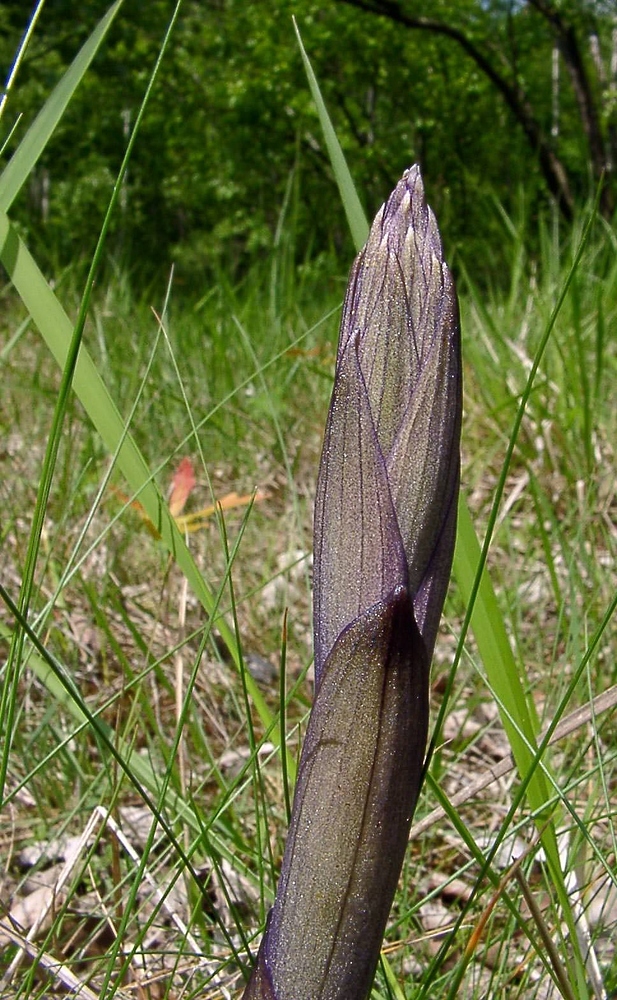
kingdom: Plantae
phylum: Tracheophyta
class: Liliopsida
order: Asparagales
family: Orchidaceae
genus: Limodorum
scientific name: Limodorum abortivum
